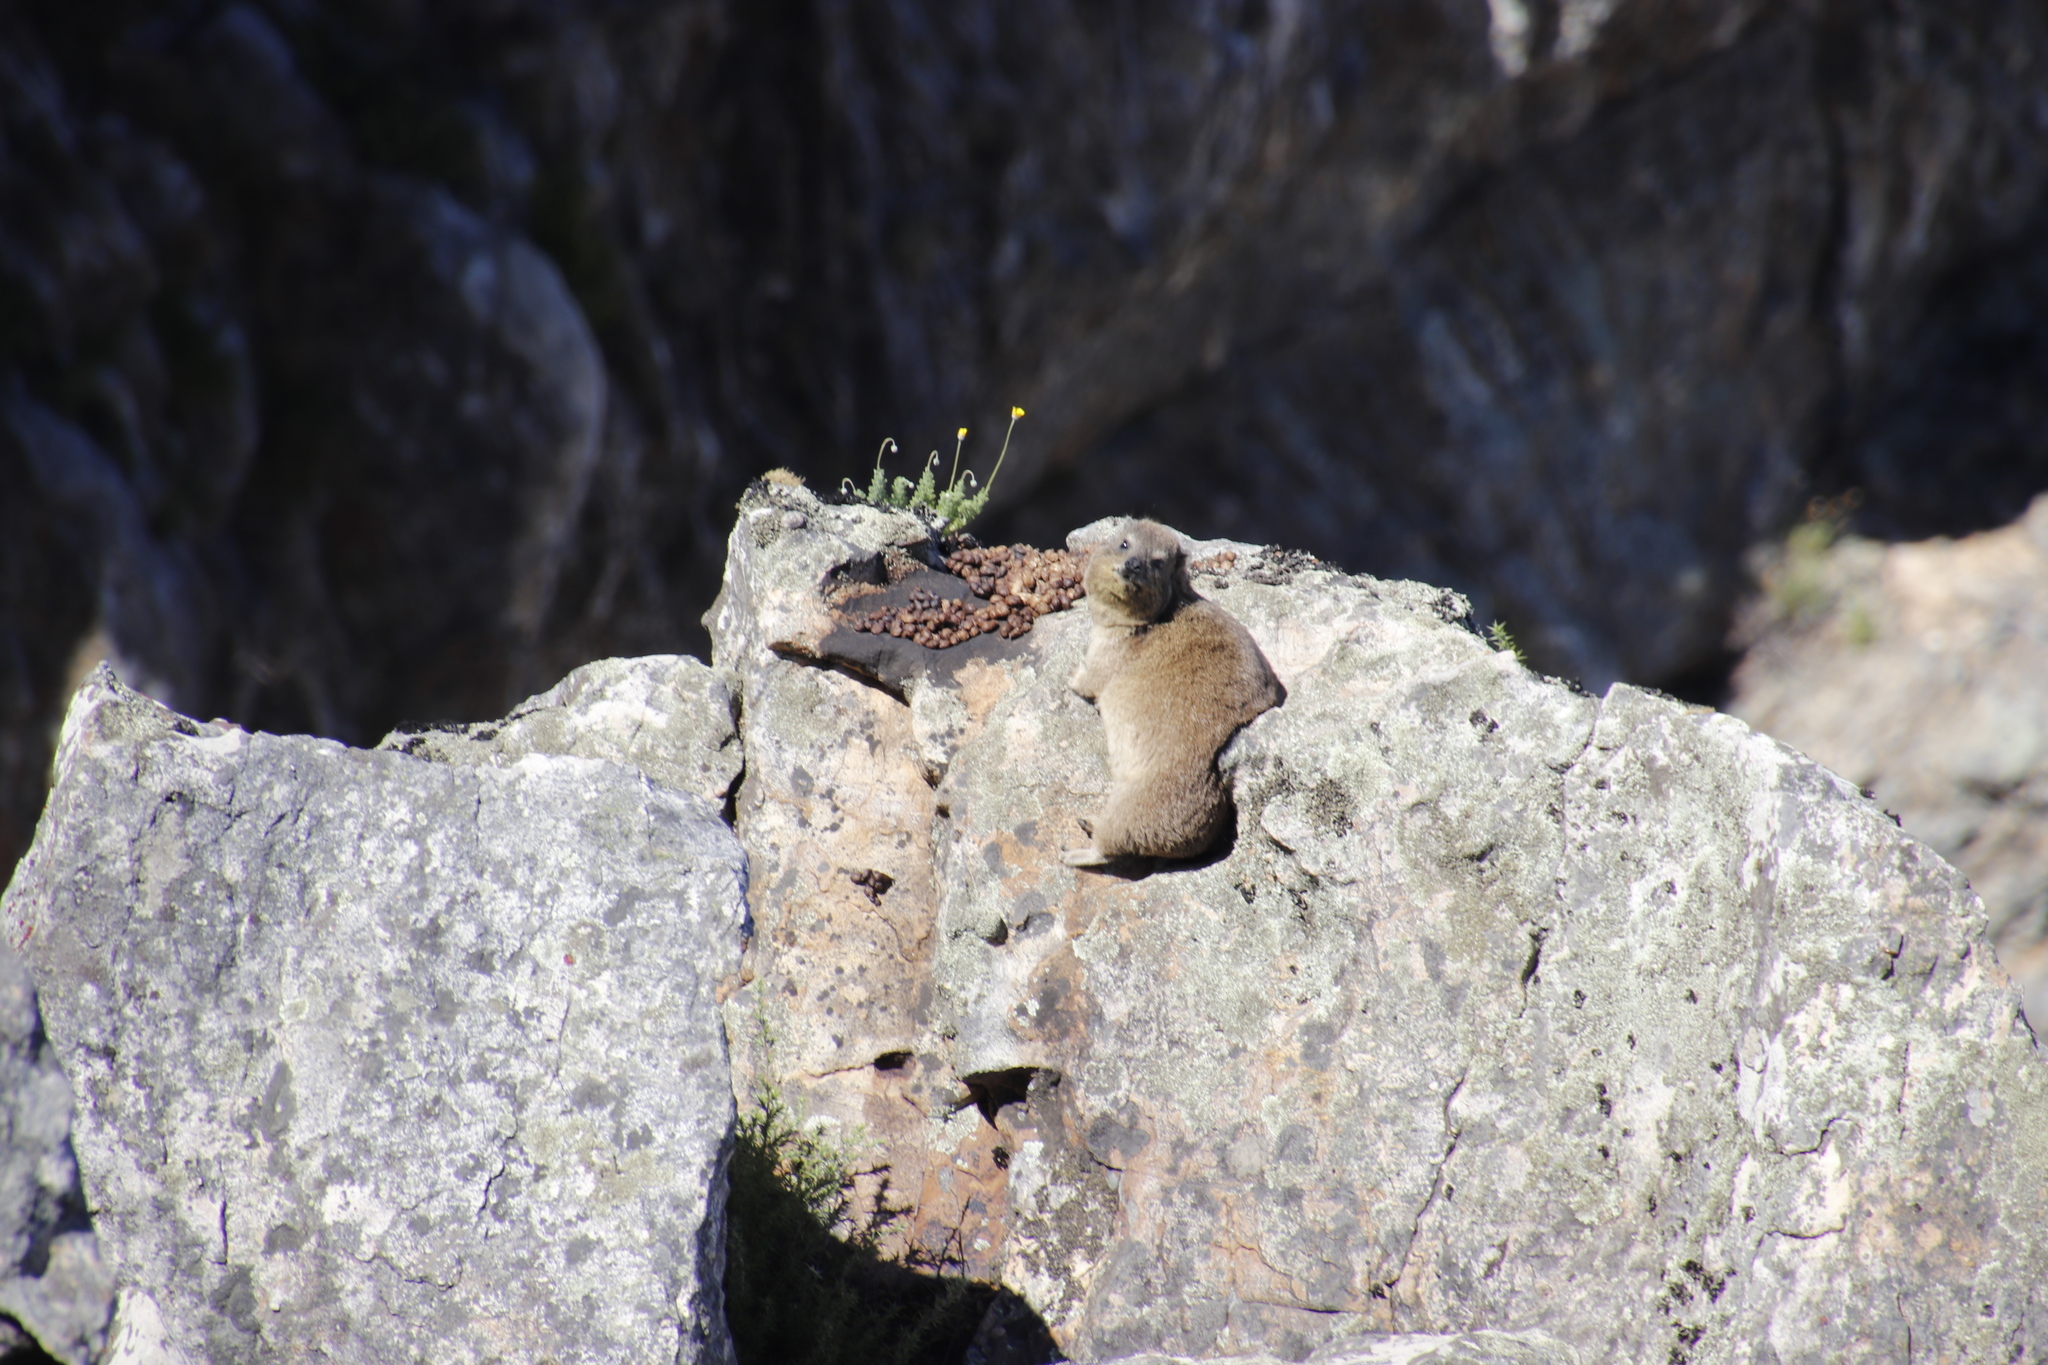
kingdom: Animalia
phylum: Chordata
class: Mammalia
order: Hyracoidea
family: Procaviidae
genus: Procavia
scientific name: Procavia capensis
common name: Rock hyrax
